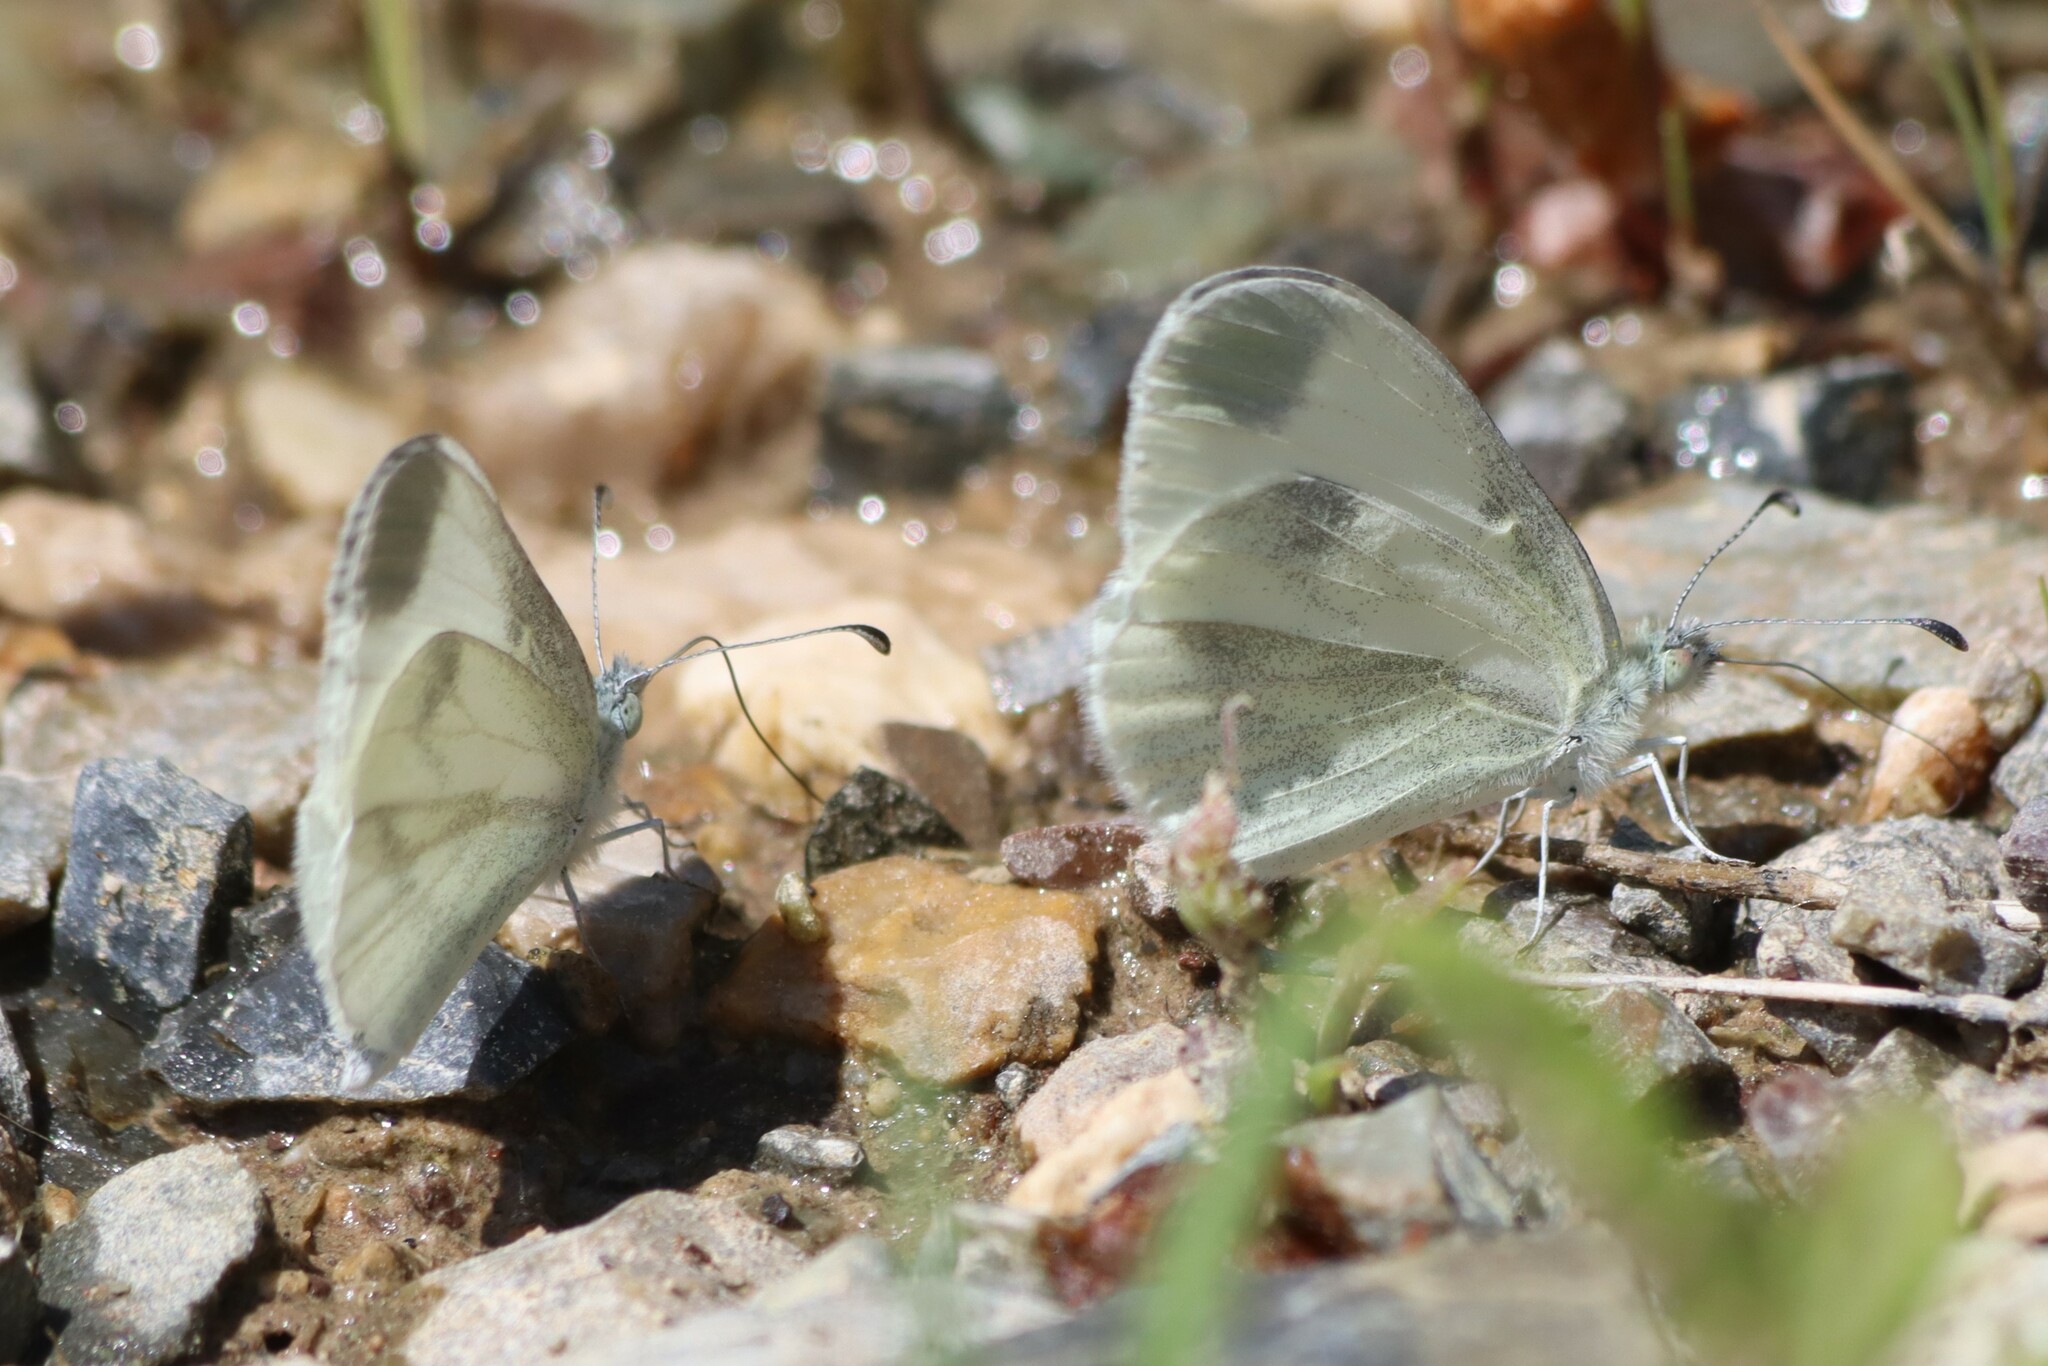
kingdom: Animalia
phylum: Arthropoda
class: Insecta
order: Lepidoptera
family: Pieridae
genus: Leptidea
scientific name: Leptidea sinapis
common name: Wood white
